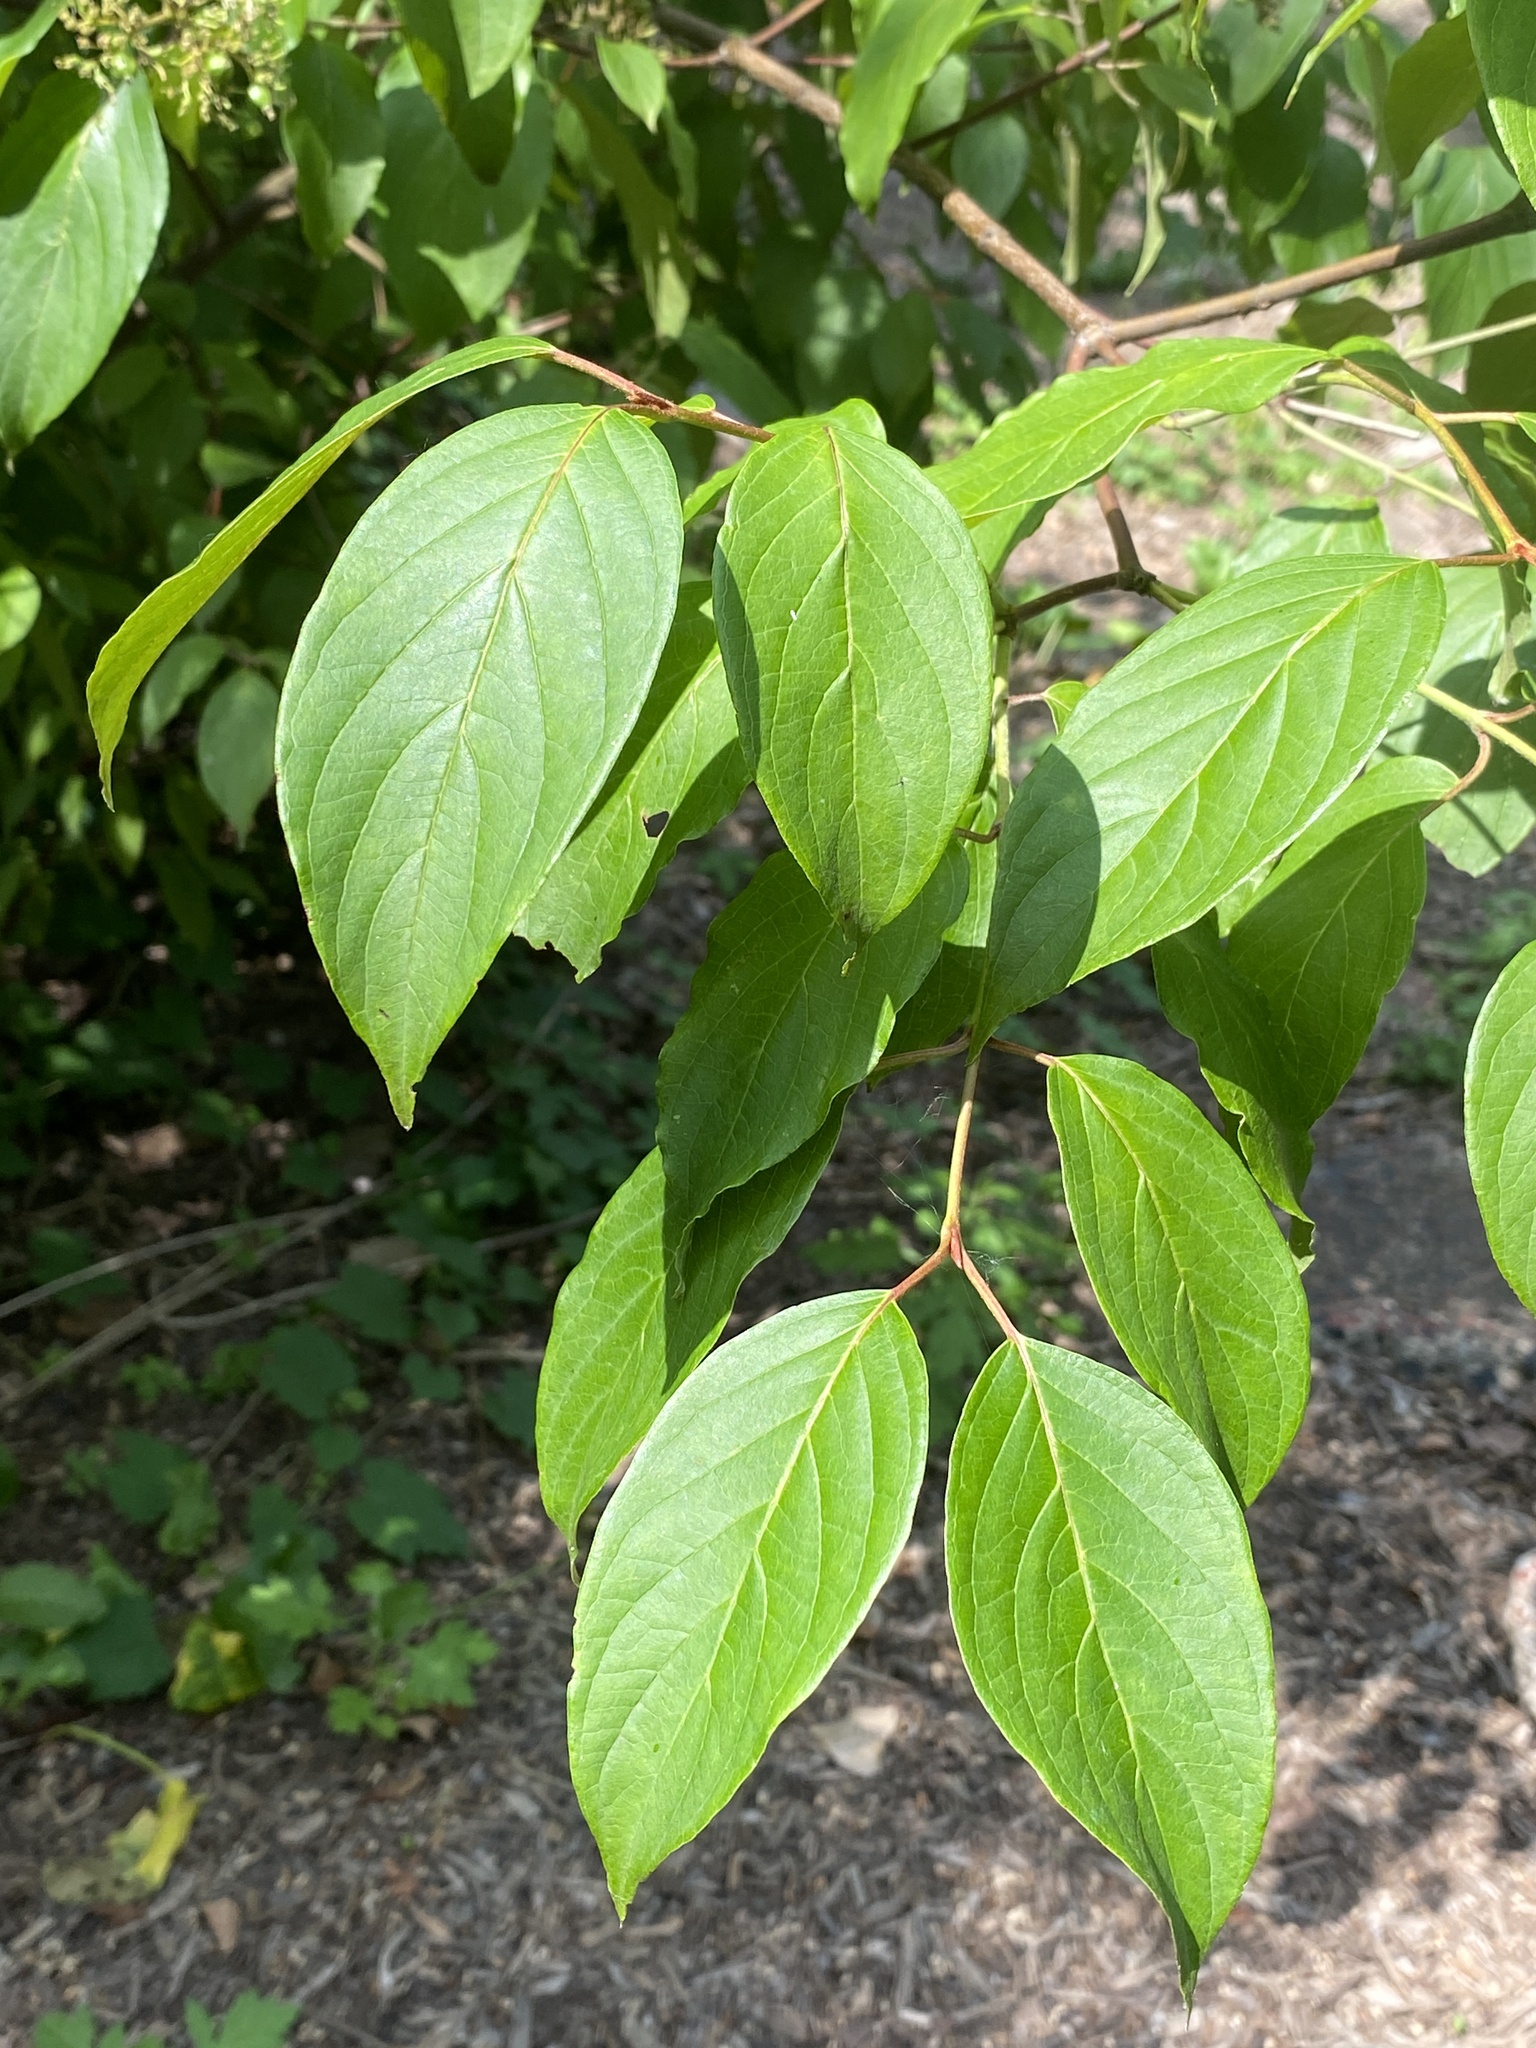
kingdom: Plantae
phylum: Tracheophyta
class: Magnoliopsida
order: Cornales
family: Cornaceae
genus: Cornus
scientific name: Cornus amomum
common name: Silky dogwood
